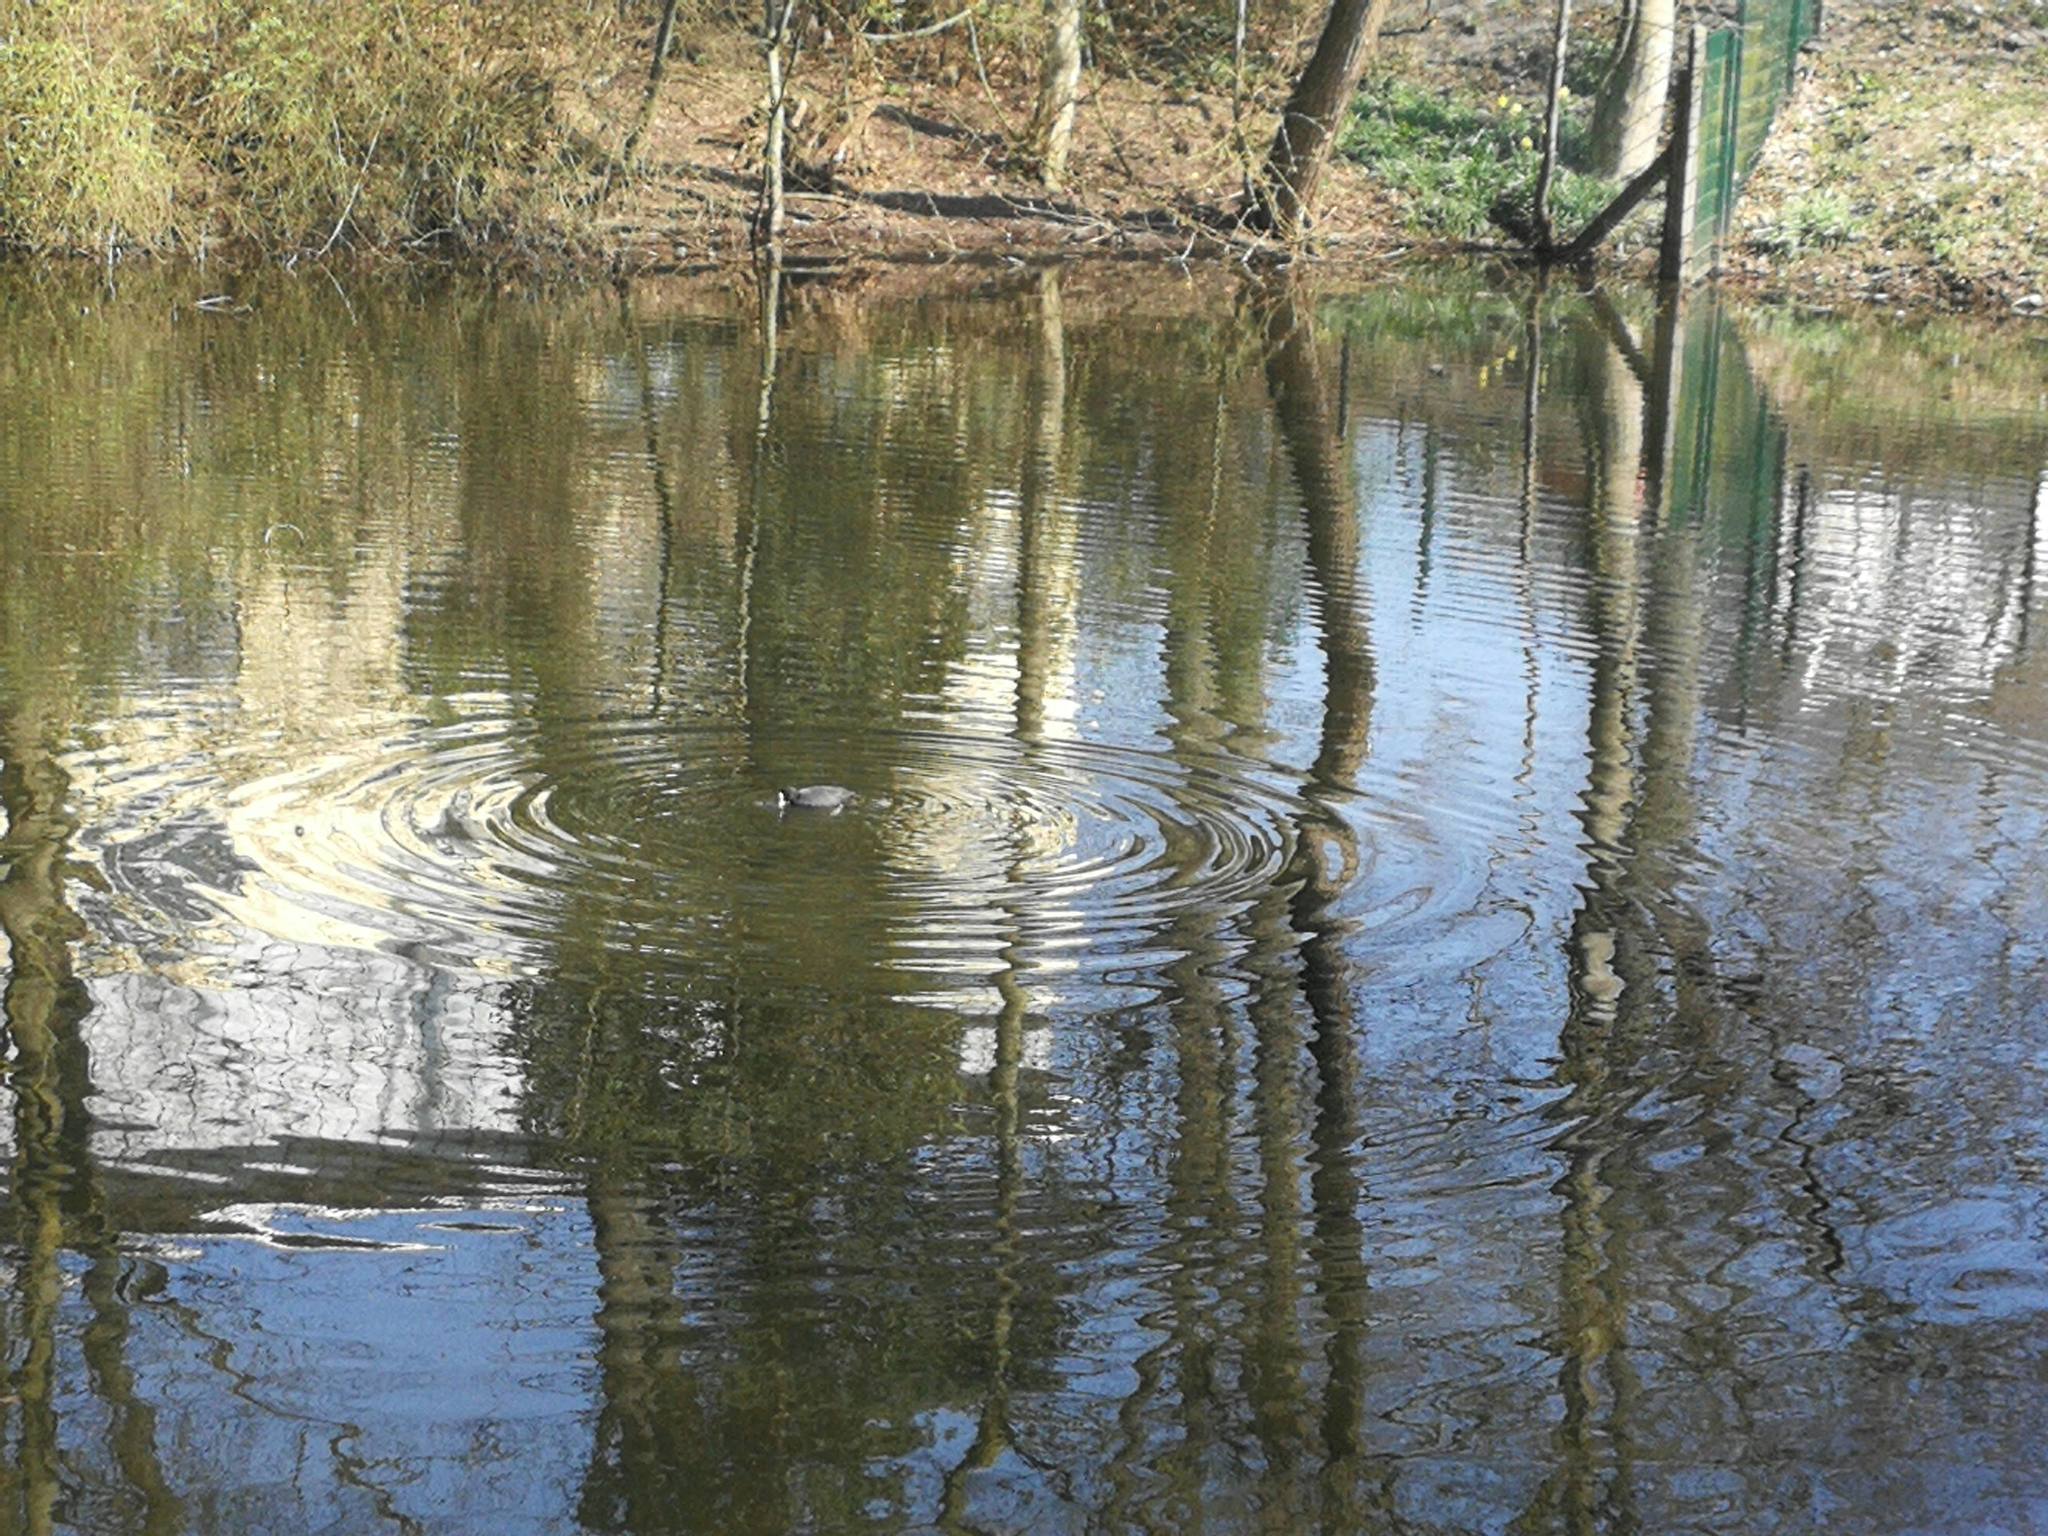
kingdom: Animalia
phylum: Chordata
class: Aves
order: Gruiformes
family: Rallidae
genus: Fulica
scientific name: Fulica atra
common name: Eurasian coot
